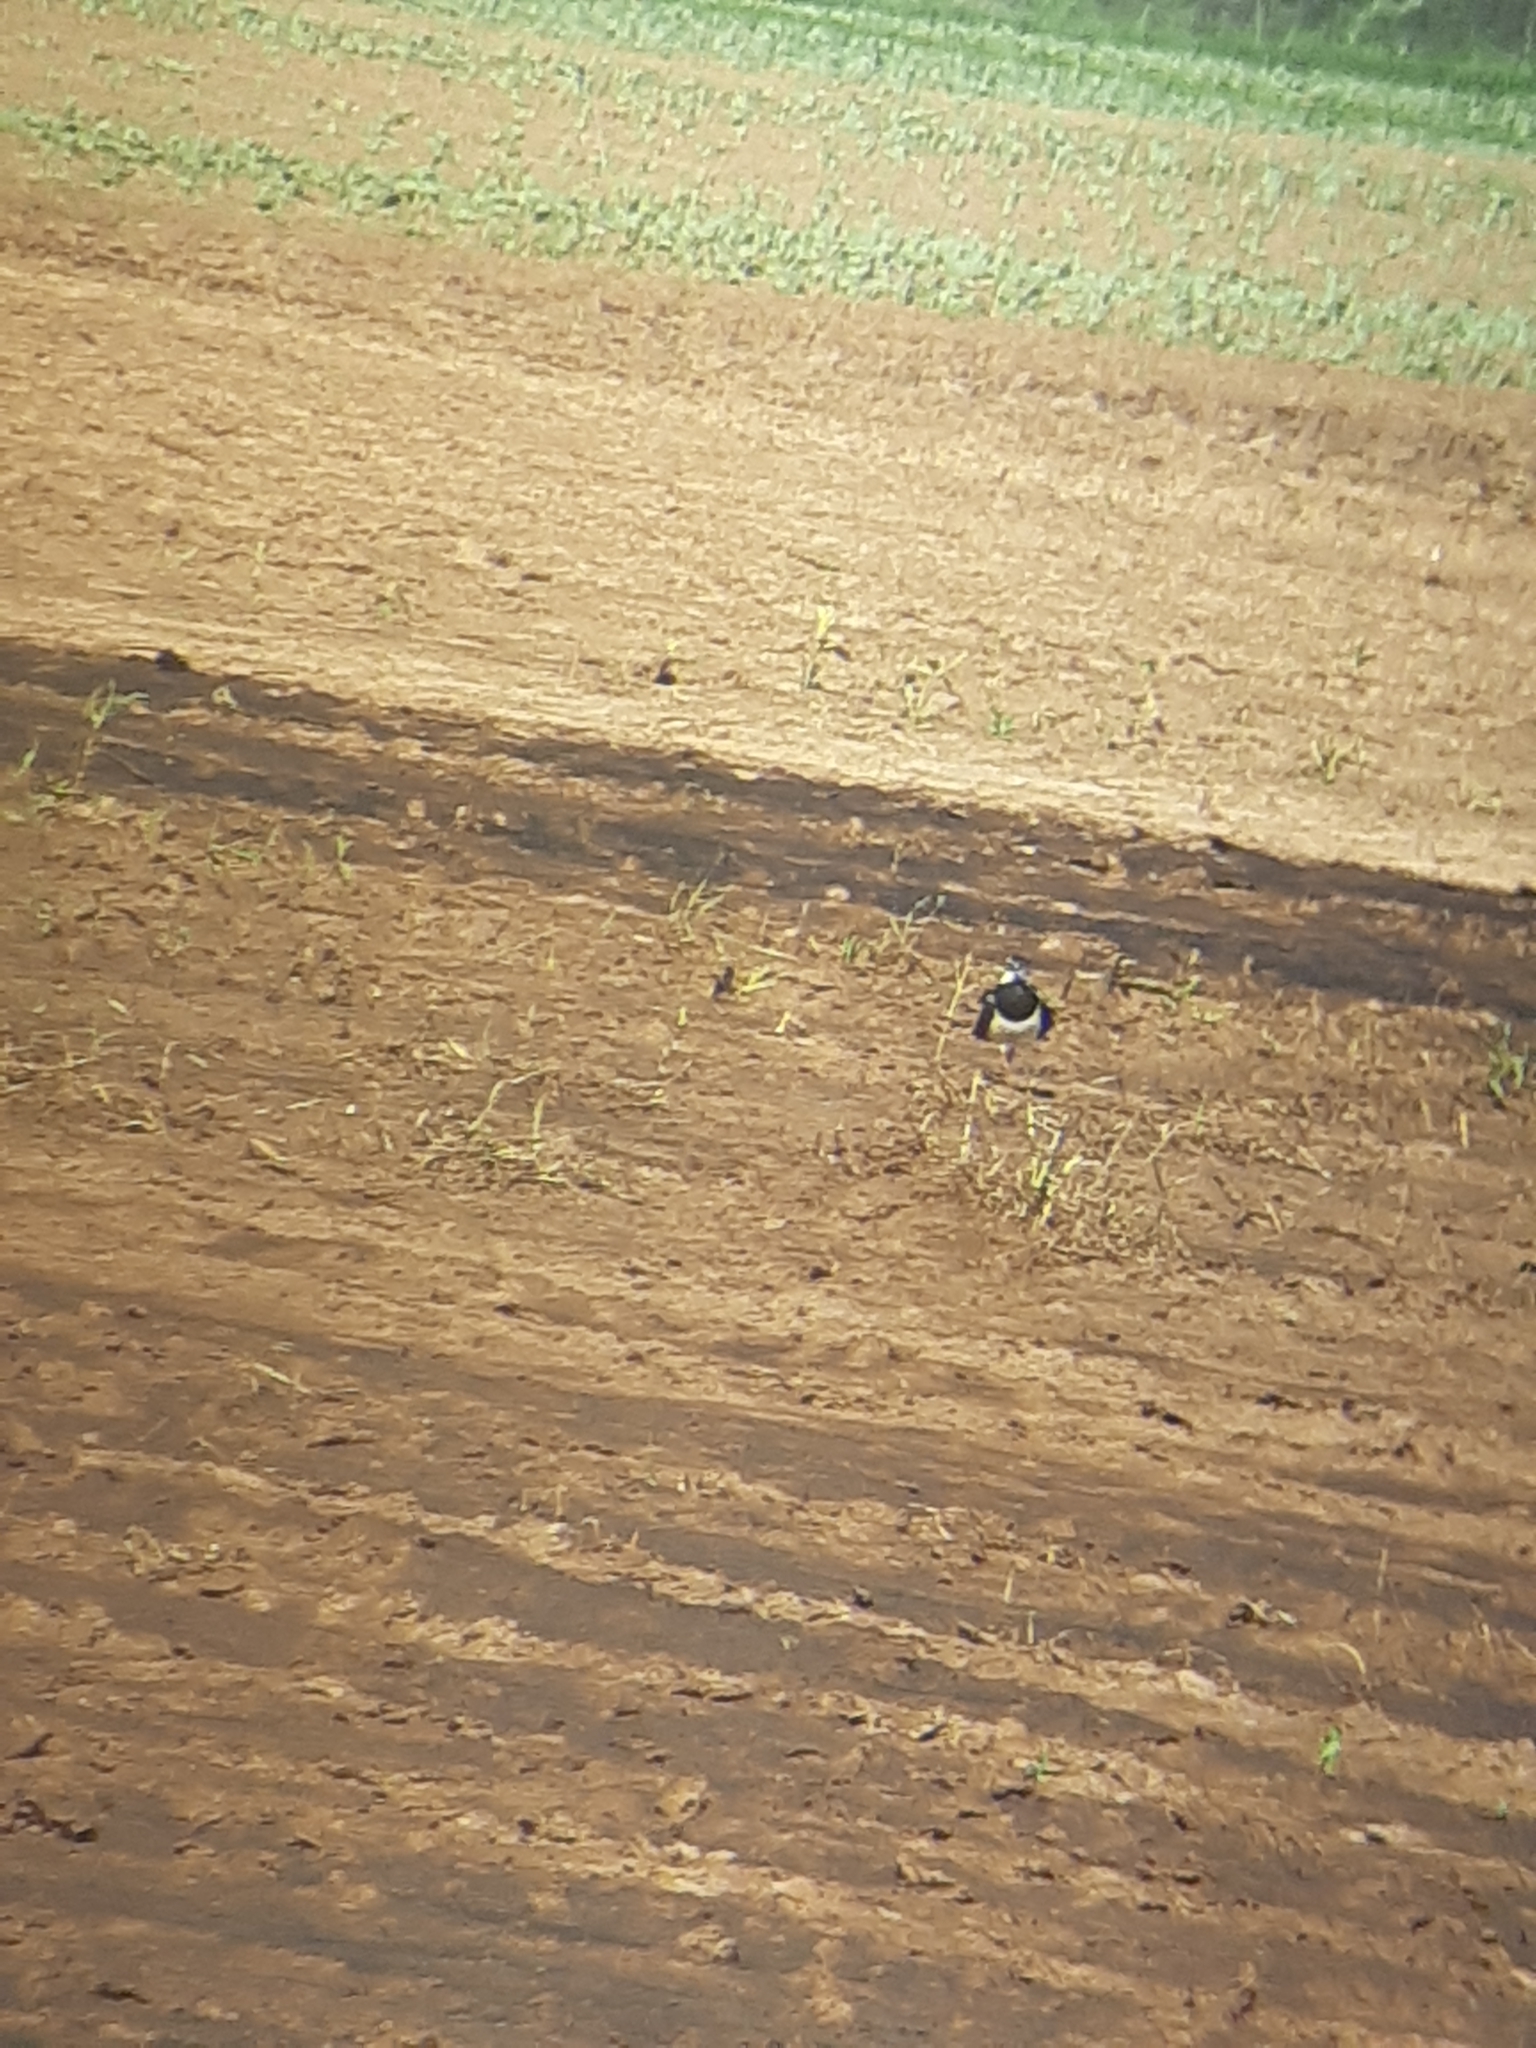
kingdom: Animalia
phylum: Chordata
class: Aves
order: Charadriiformes
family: Charadriidae
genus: Vanellus
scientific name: Vanellus vanellus
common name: Northern lapwing
